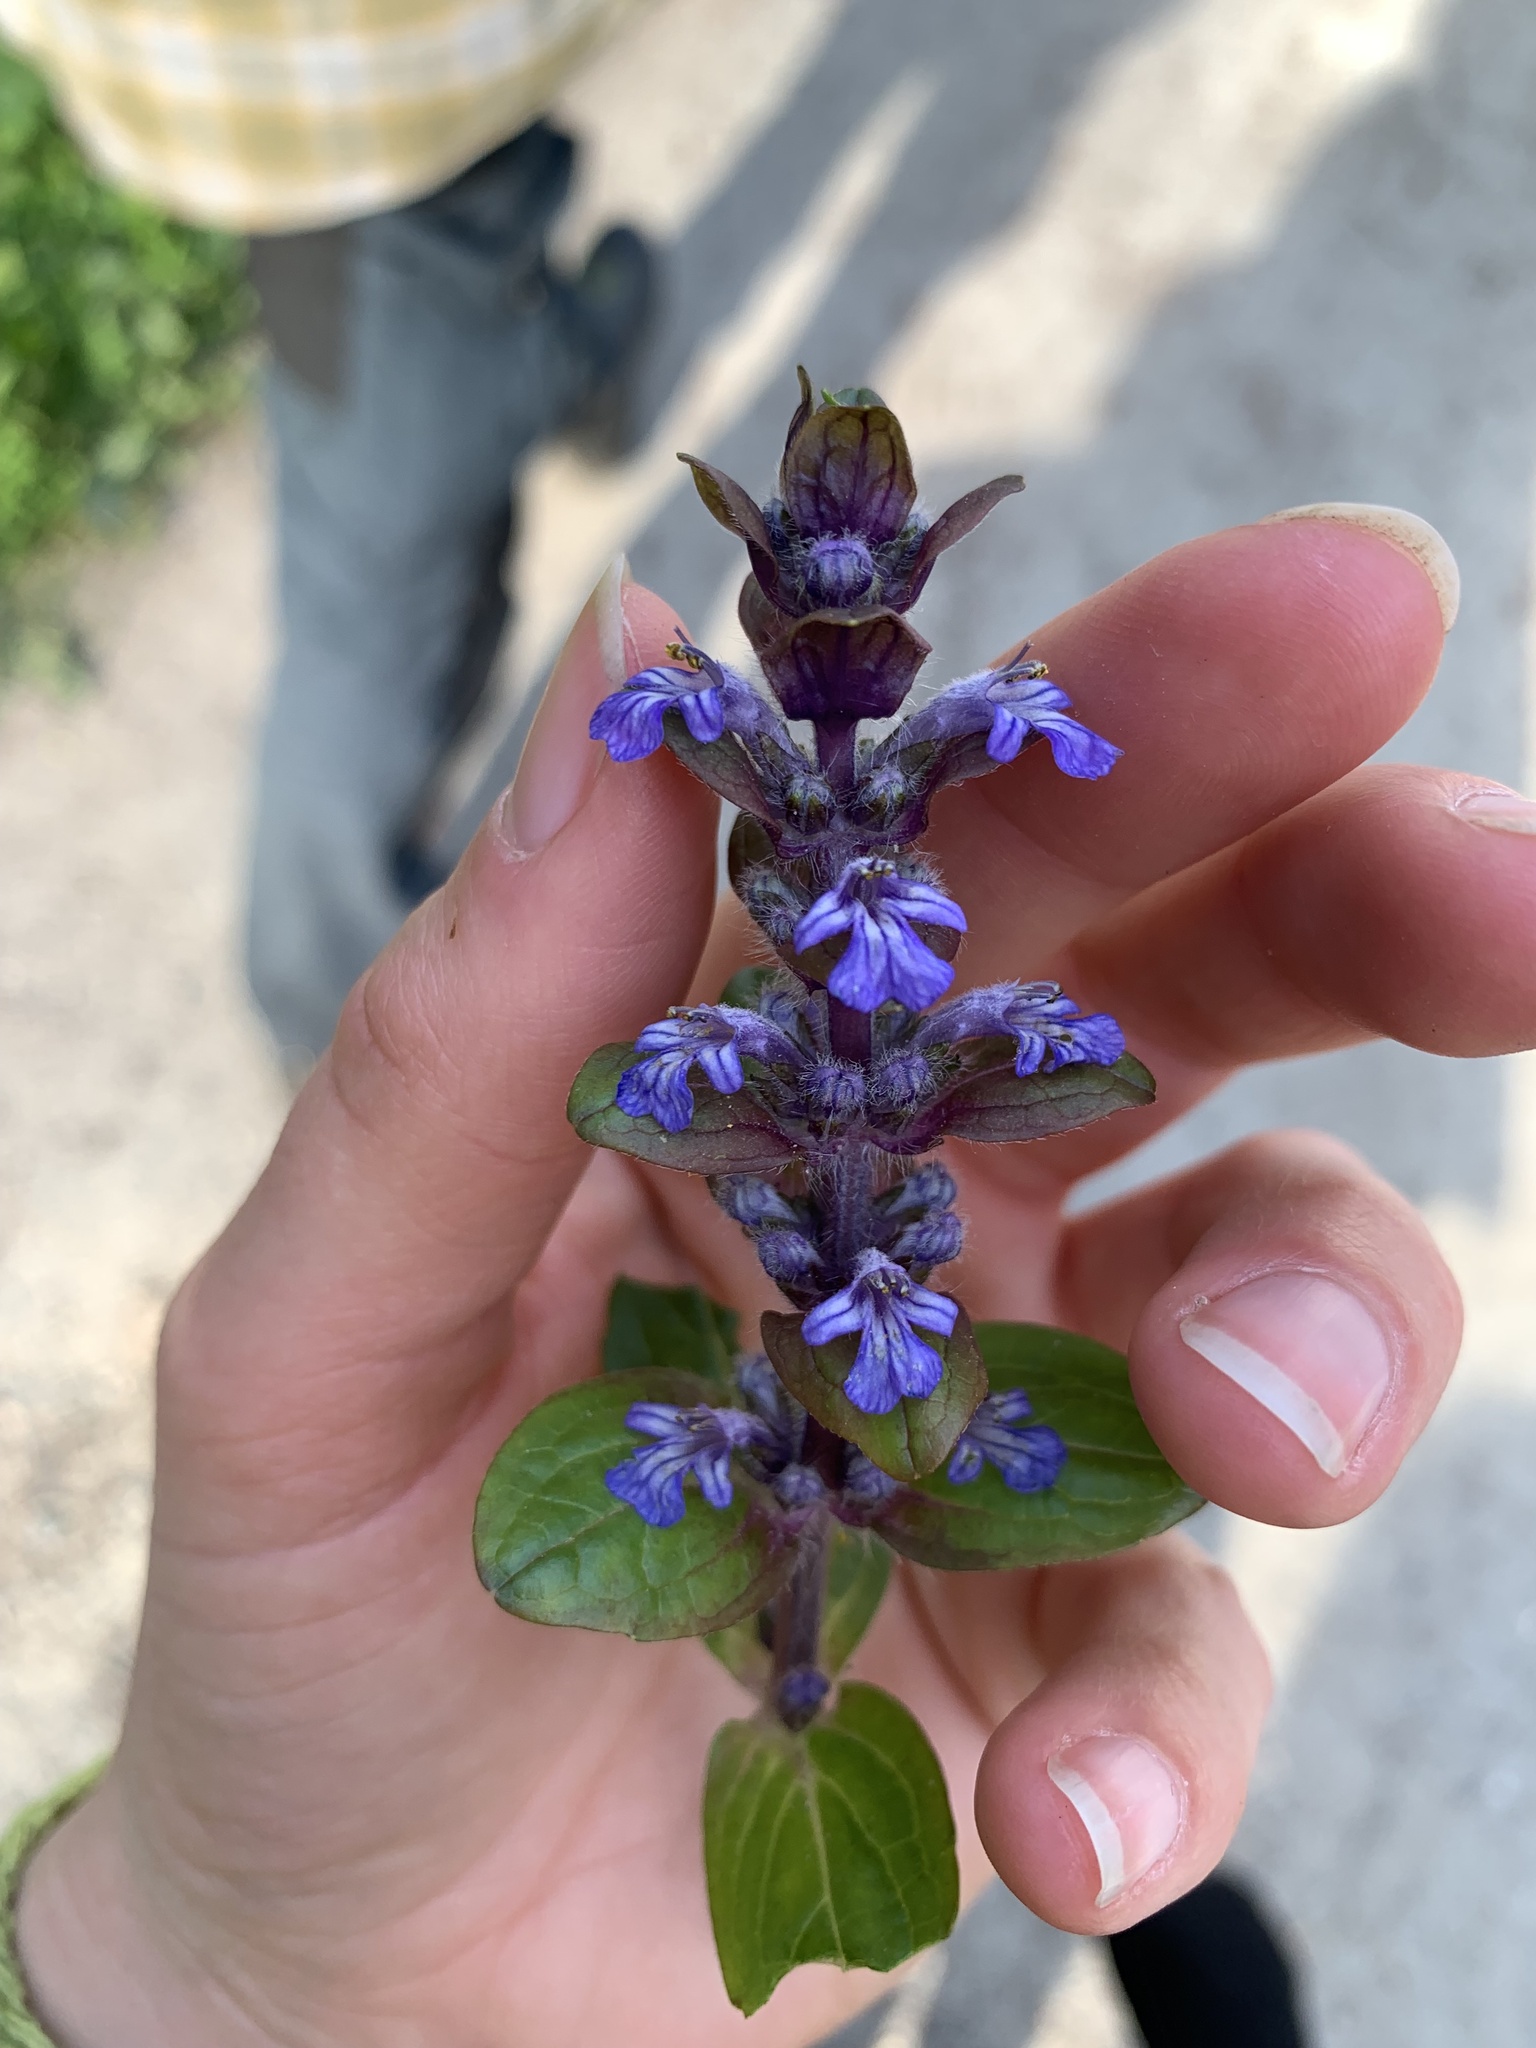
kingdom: Plantae
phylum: Tracheophyta
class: Magnoliopsida
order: Lamiales
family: Lamiaceae
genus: Ajuga
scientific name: Ajuga reptans
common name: Bugle
